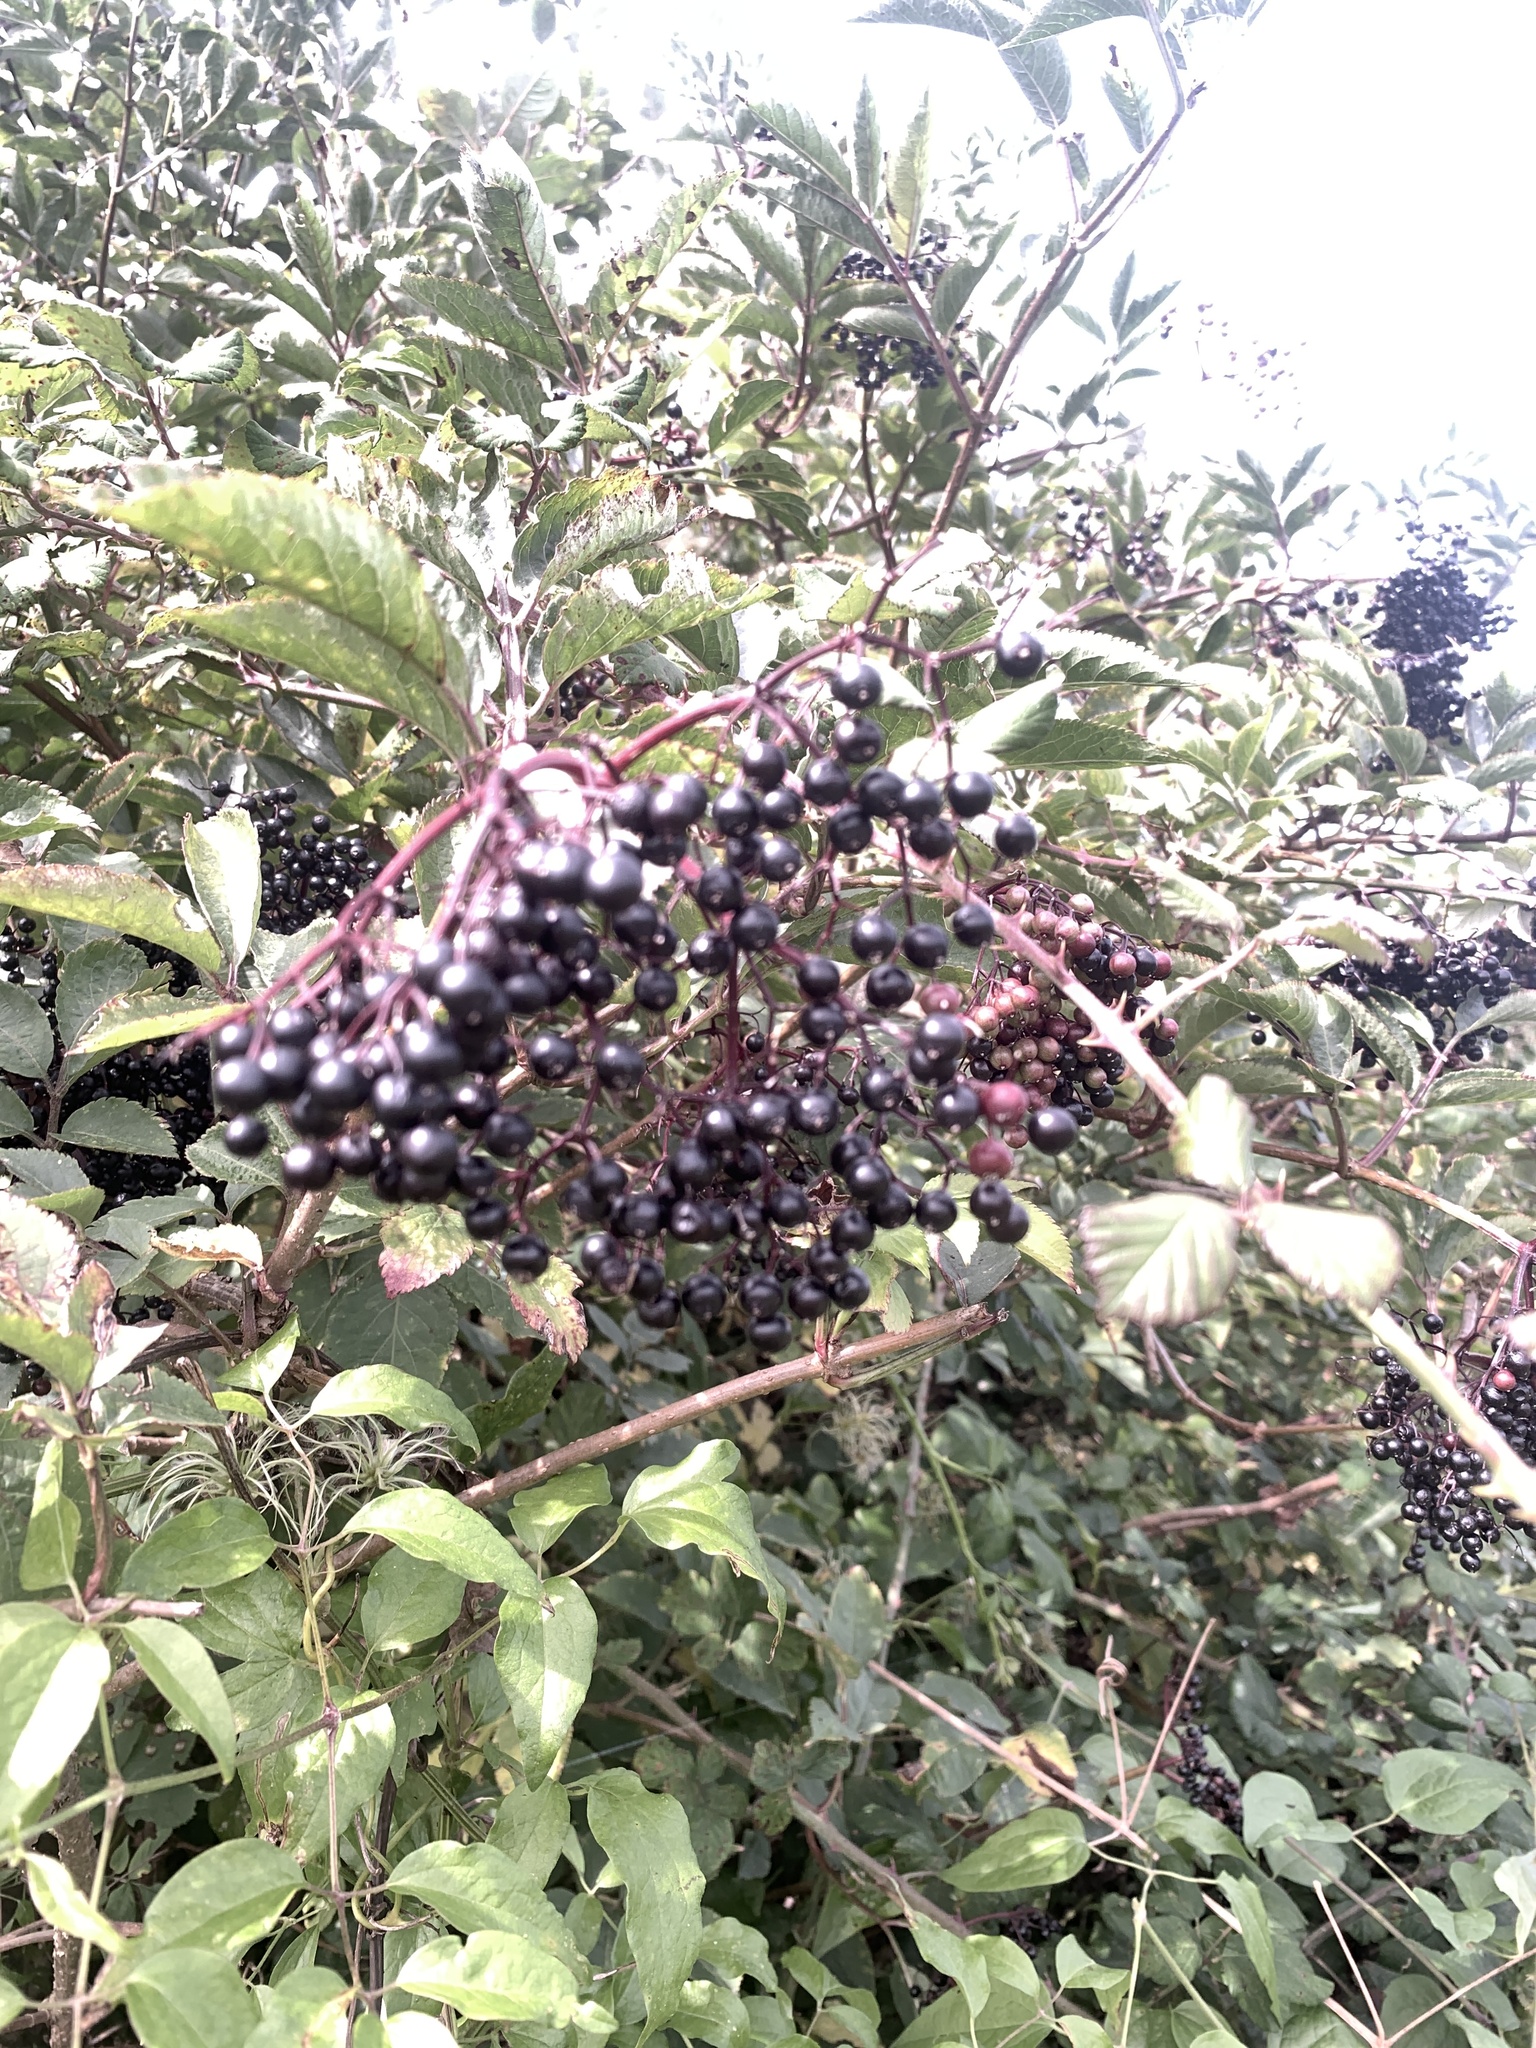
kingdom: Plantae
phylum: Tracheophyta
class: Magnoliopsida
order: Dipsacales
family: Viburnaceae
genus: Sambucus
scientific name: Sambucus nigra
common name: Elder
